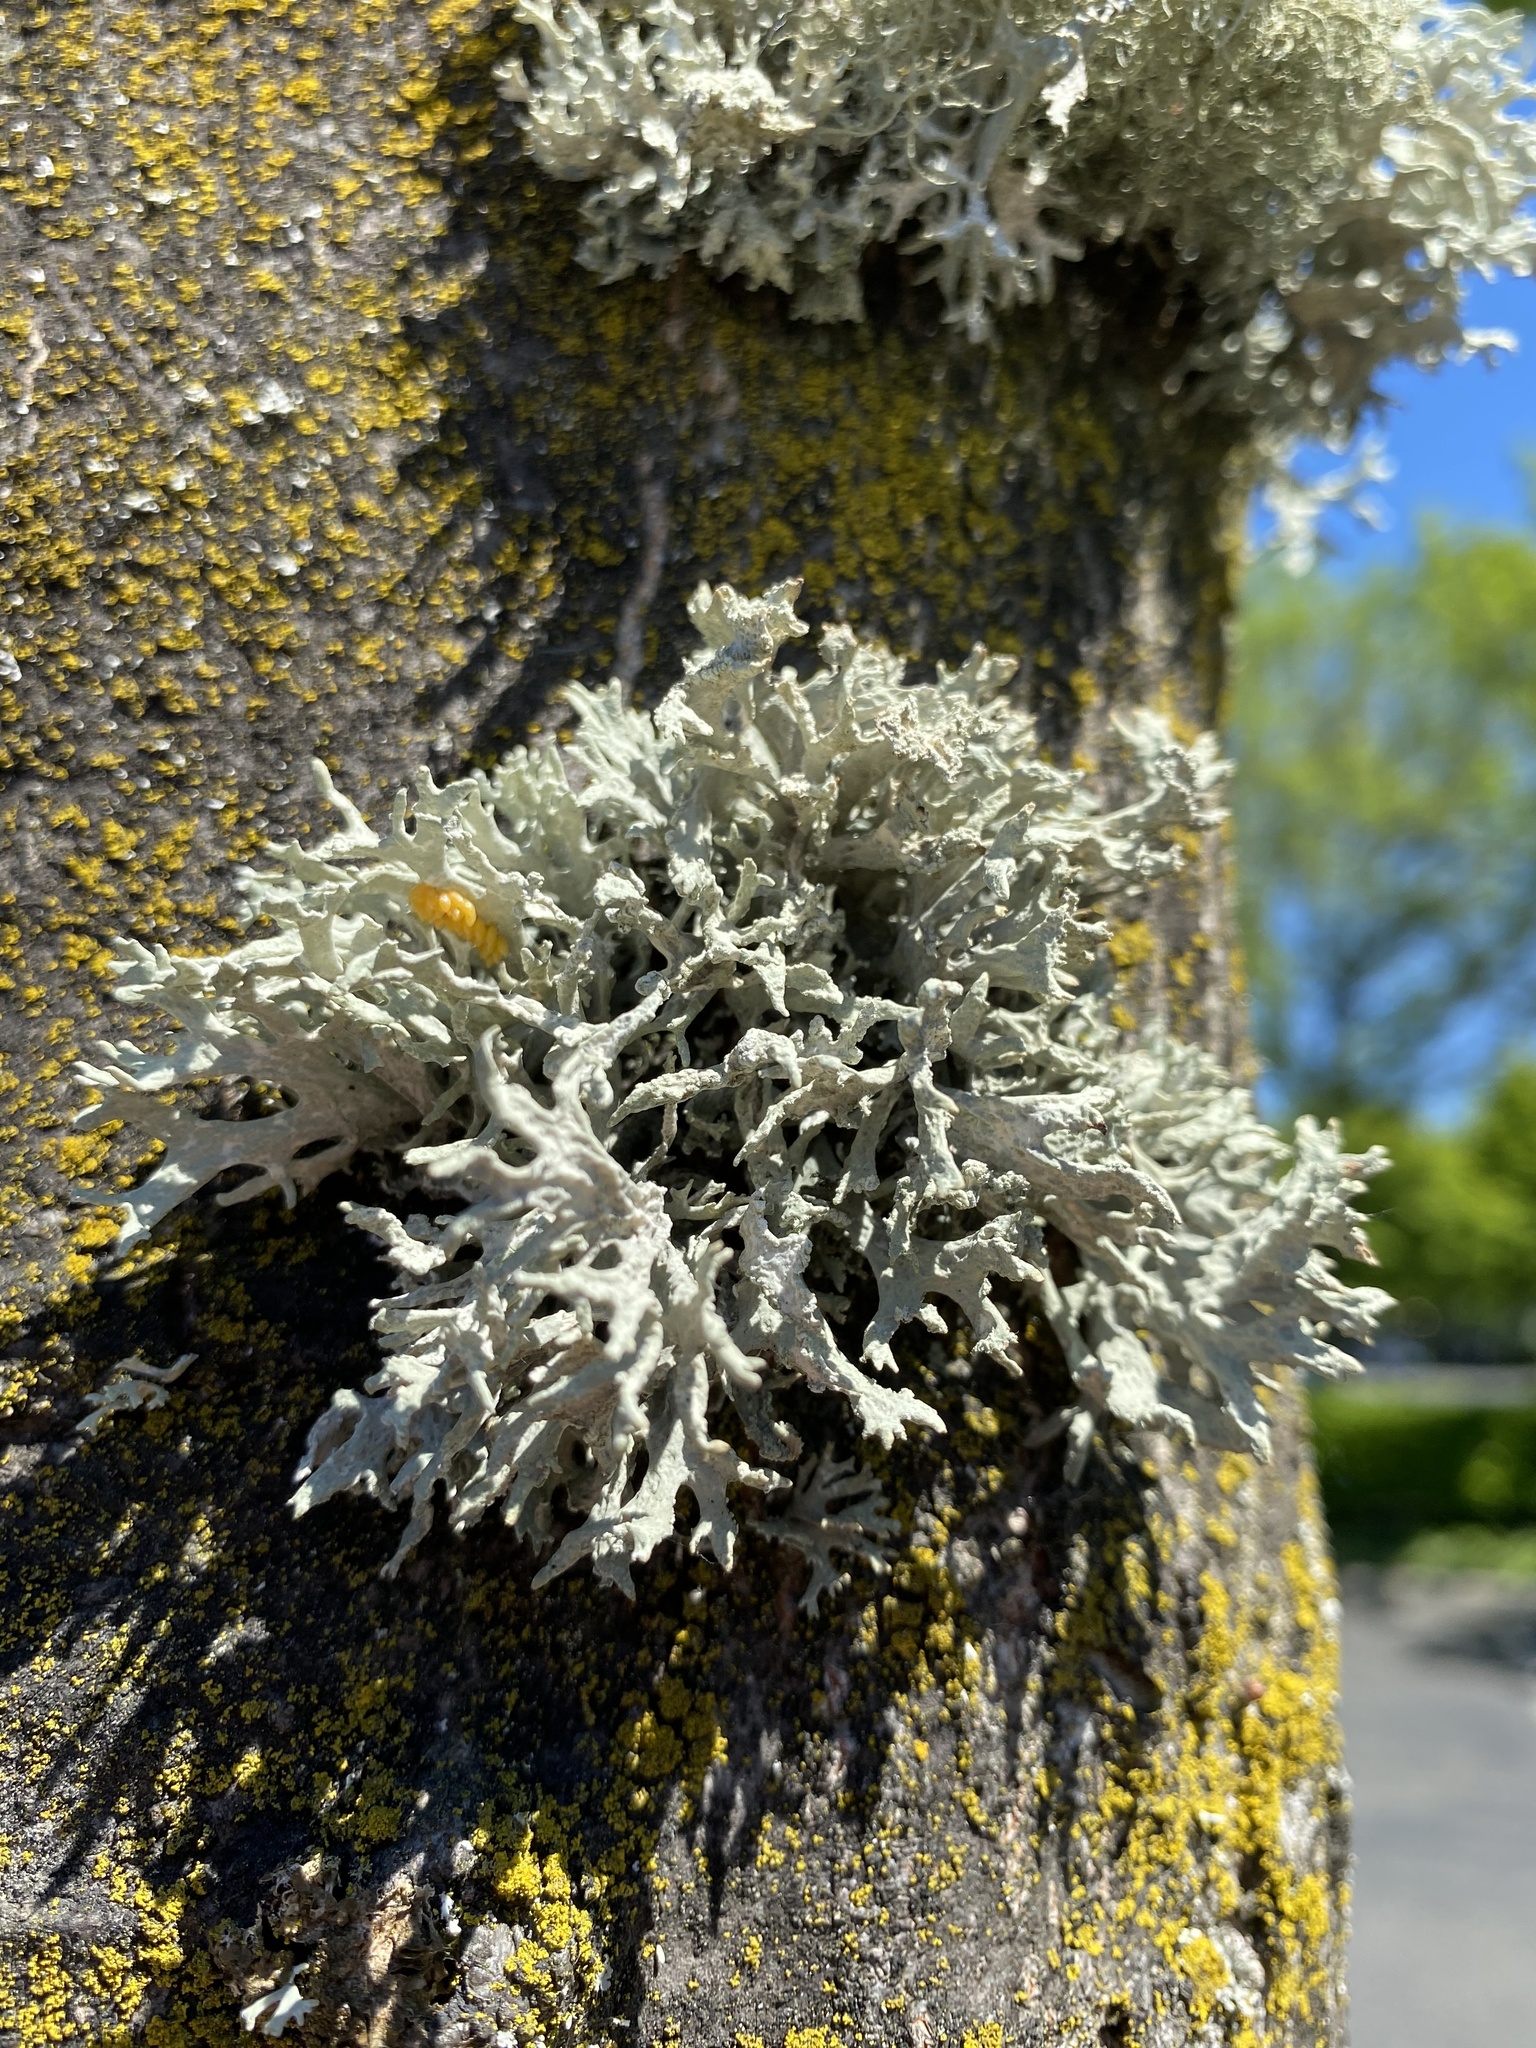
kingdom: Fungi
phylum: Ascomycota
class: Lecanoromycetes
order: Lecanorales
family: Parmeliaceae
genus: Evernia
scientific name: Evernia prunastri
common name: Oak moss
